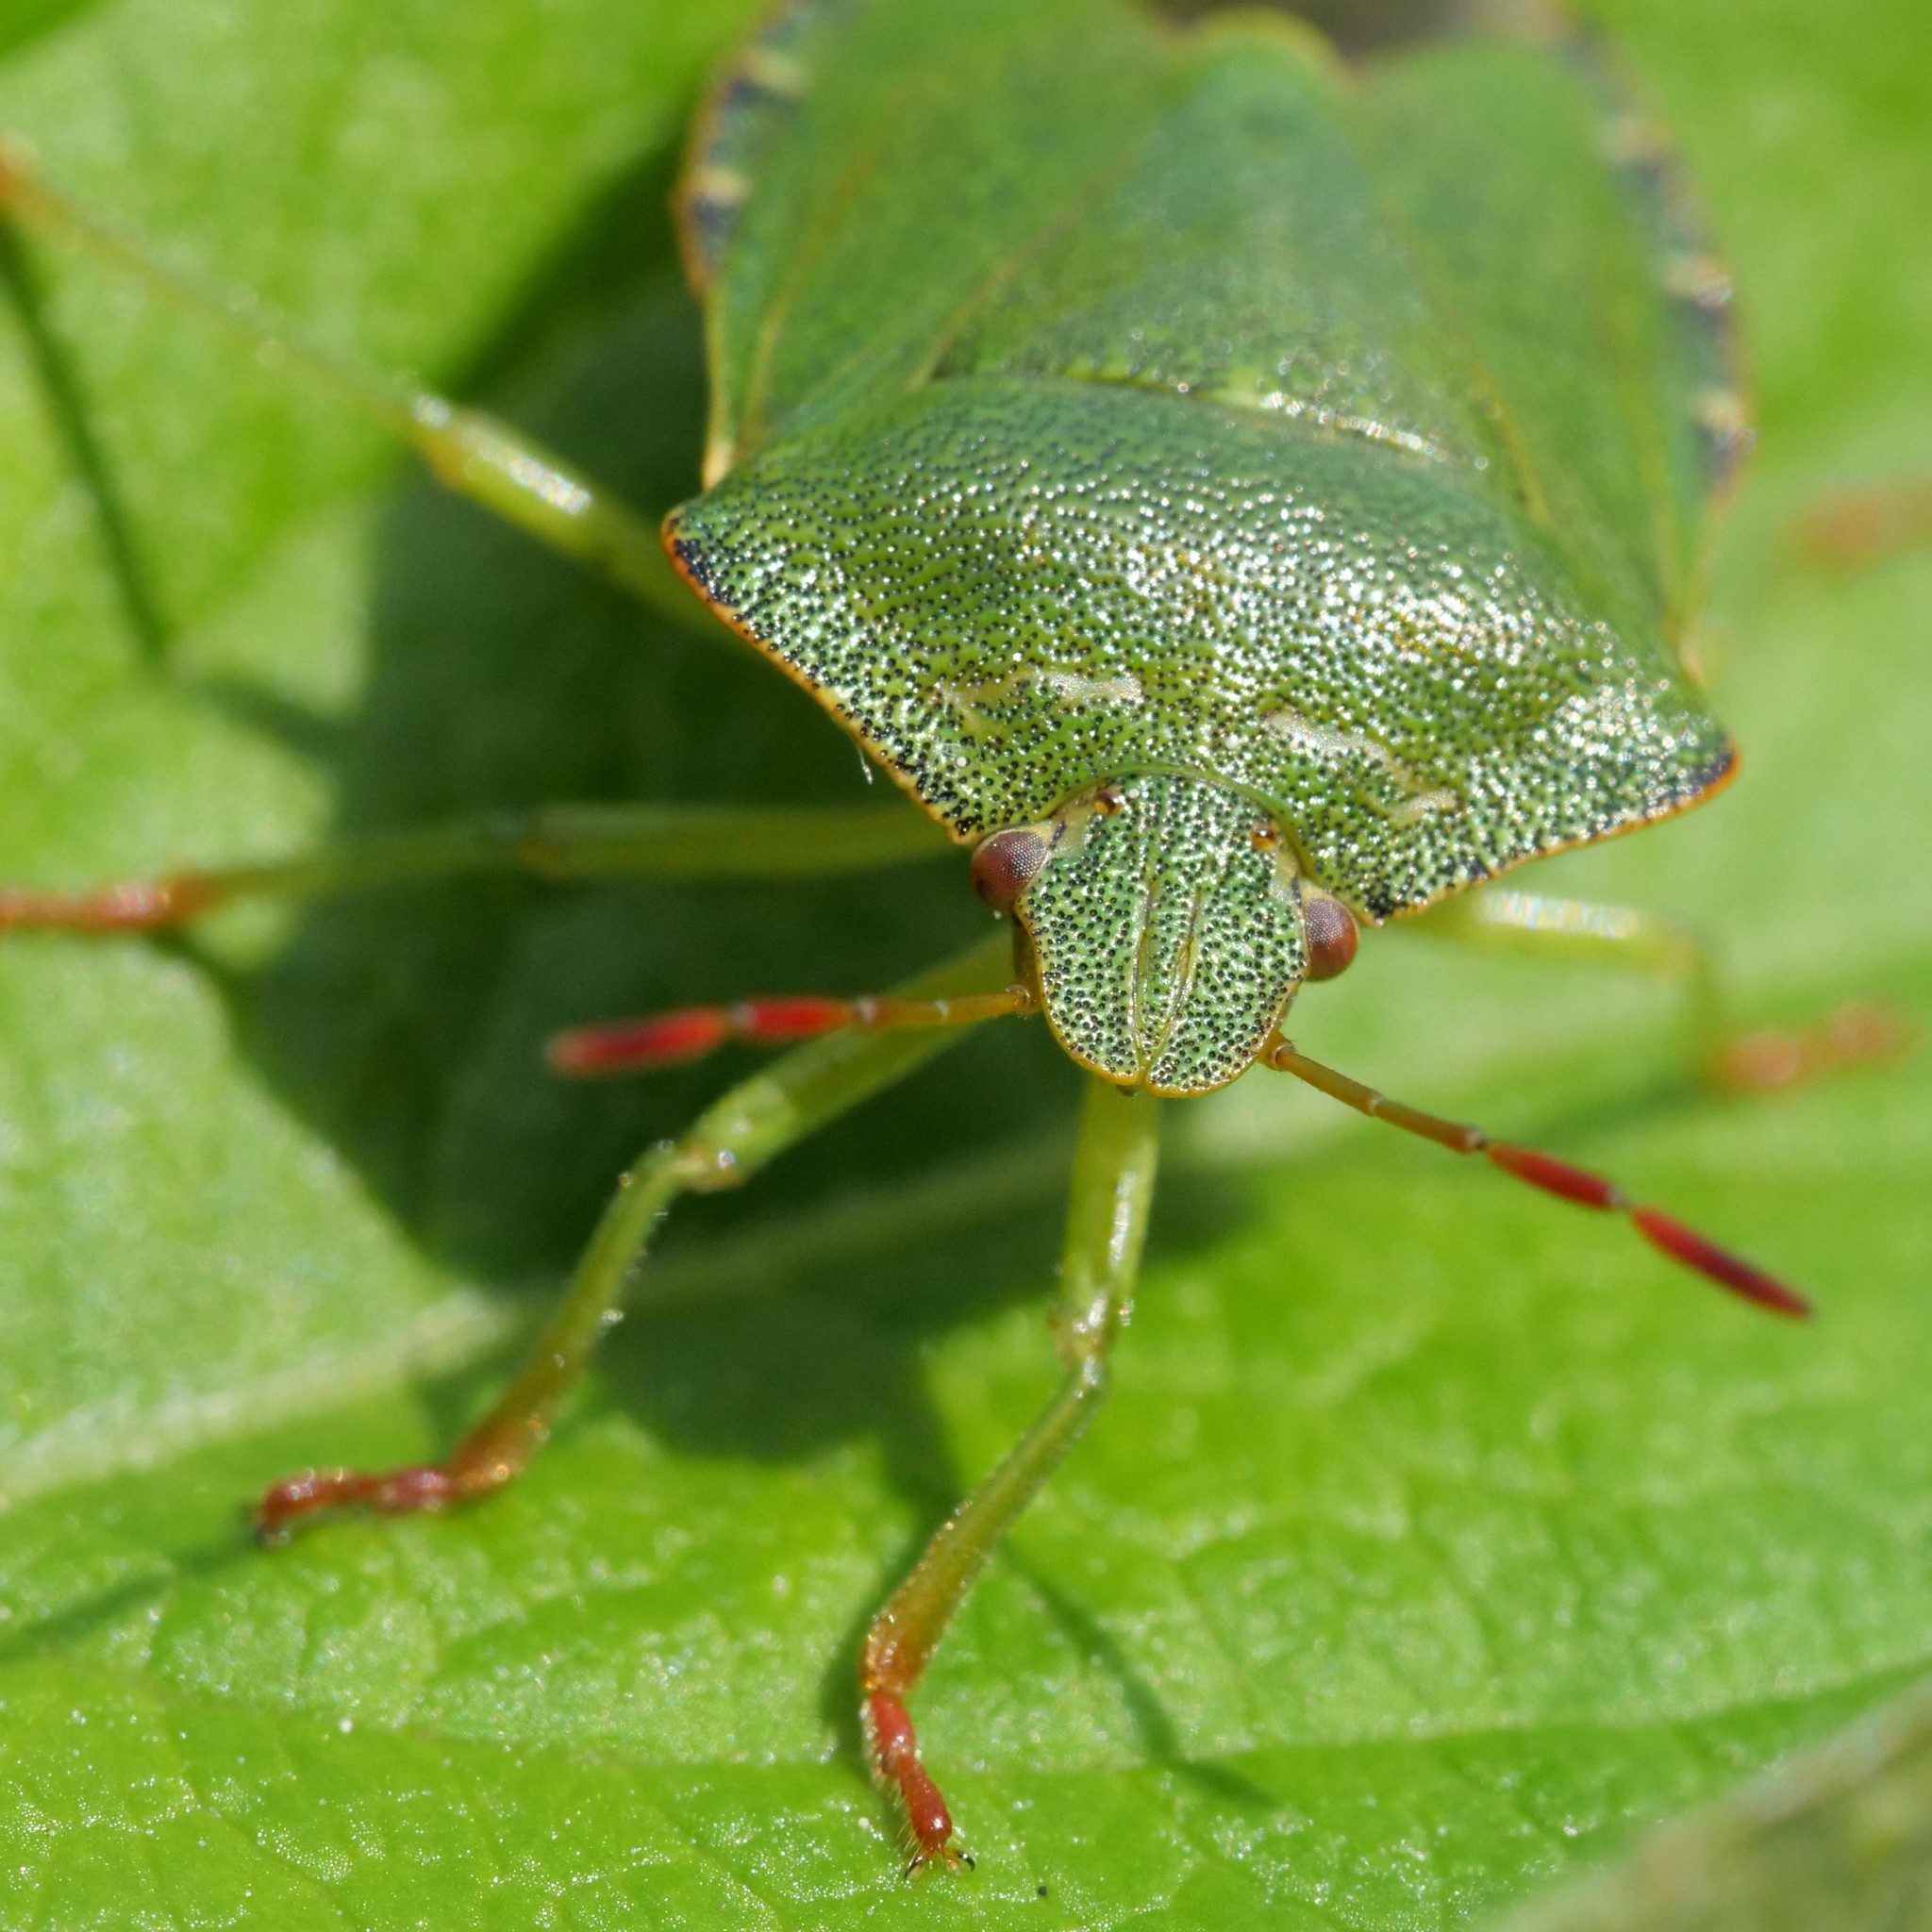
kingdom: Animalia
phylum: Arthropoda
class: Insecta
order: Hemiptera
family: Pentatomidae
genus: Palomena
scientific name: Palomena prasina
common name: Green shieldbug
